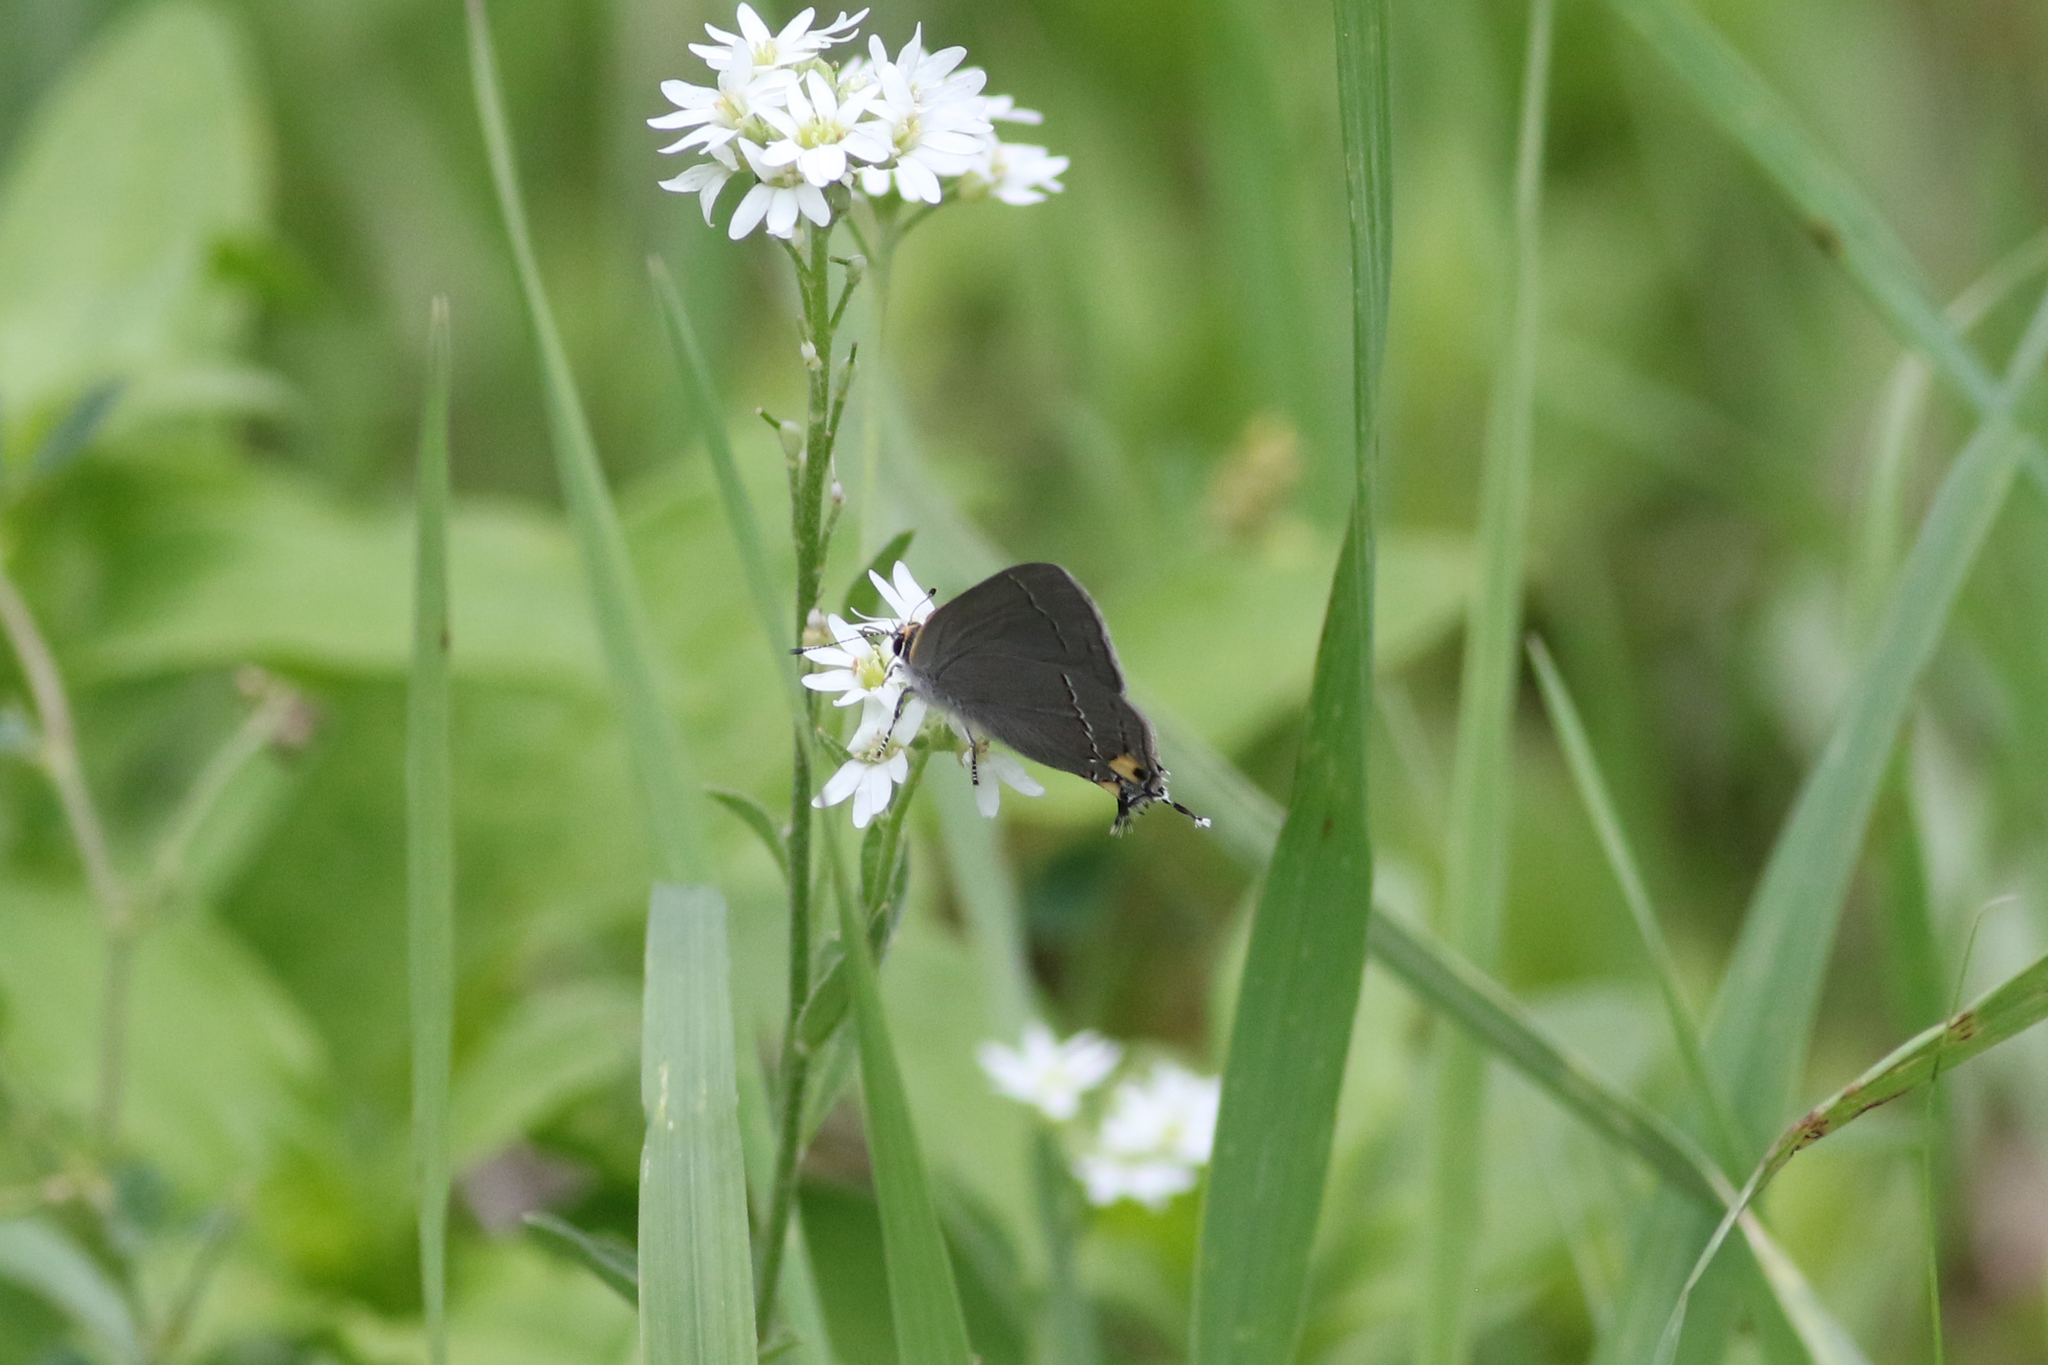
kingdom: Animalia
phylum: Arthropoda
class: Insecta
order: Lepidoptera
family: Lycaenidae
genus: Strymon
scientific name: Strymon melinus
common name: Gray hairstreak
